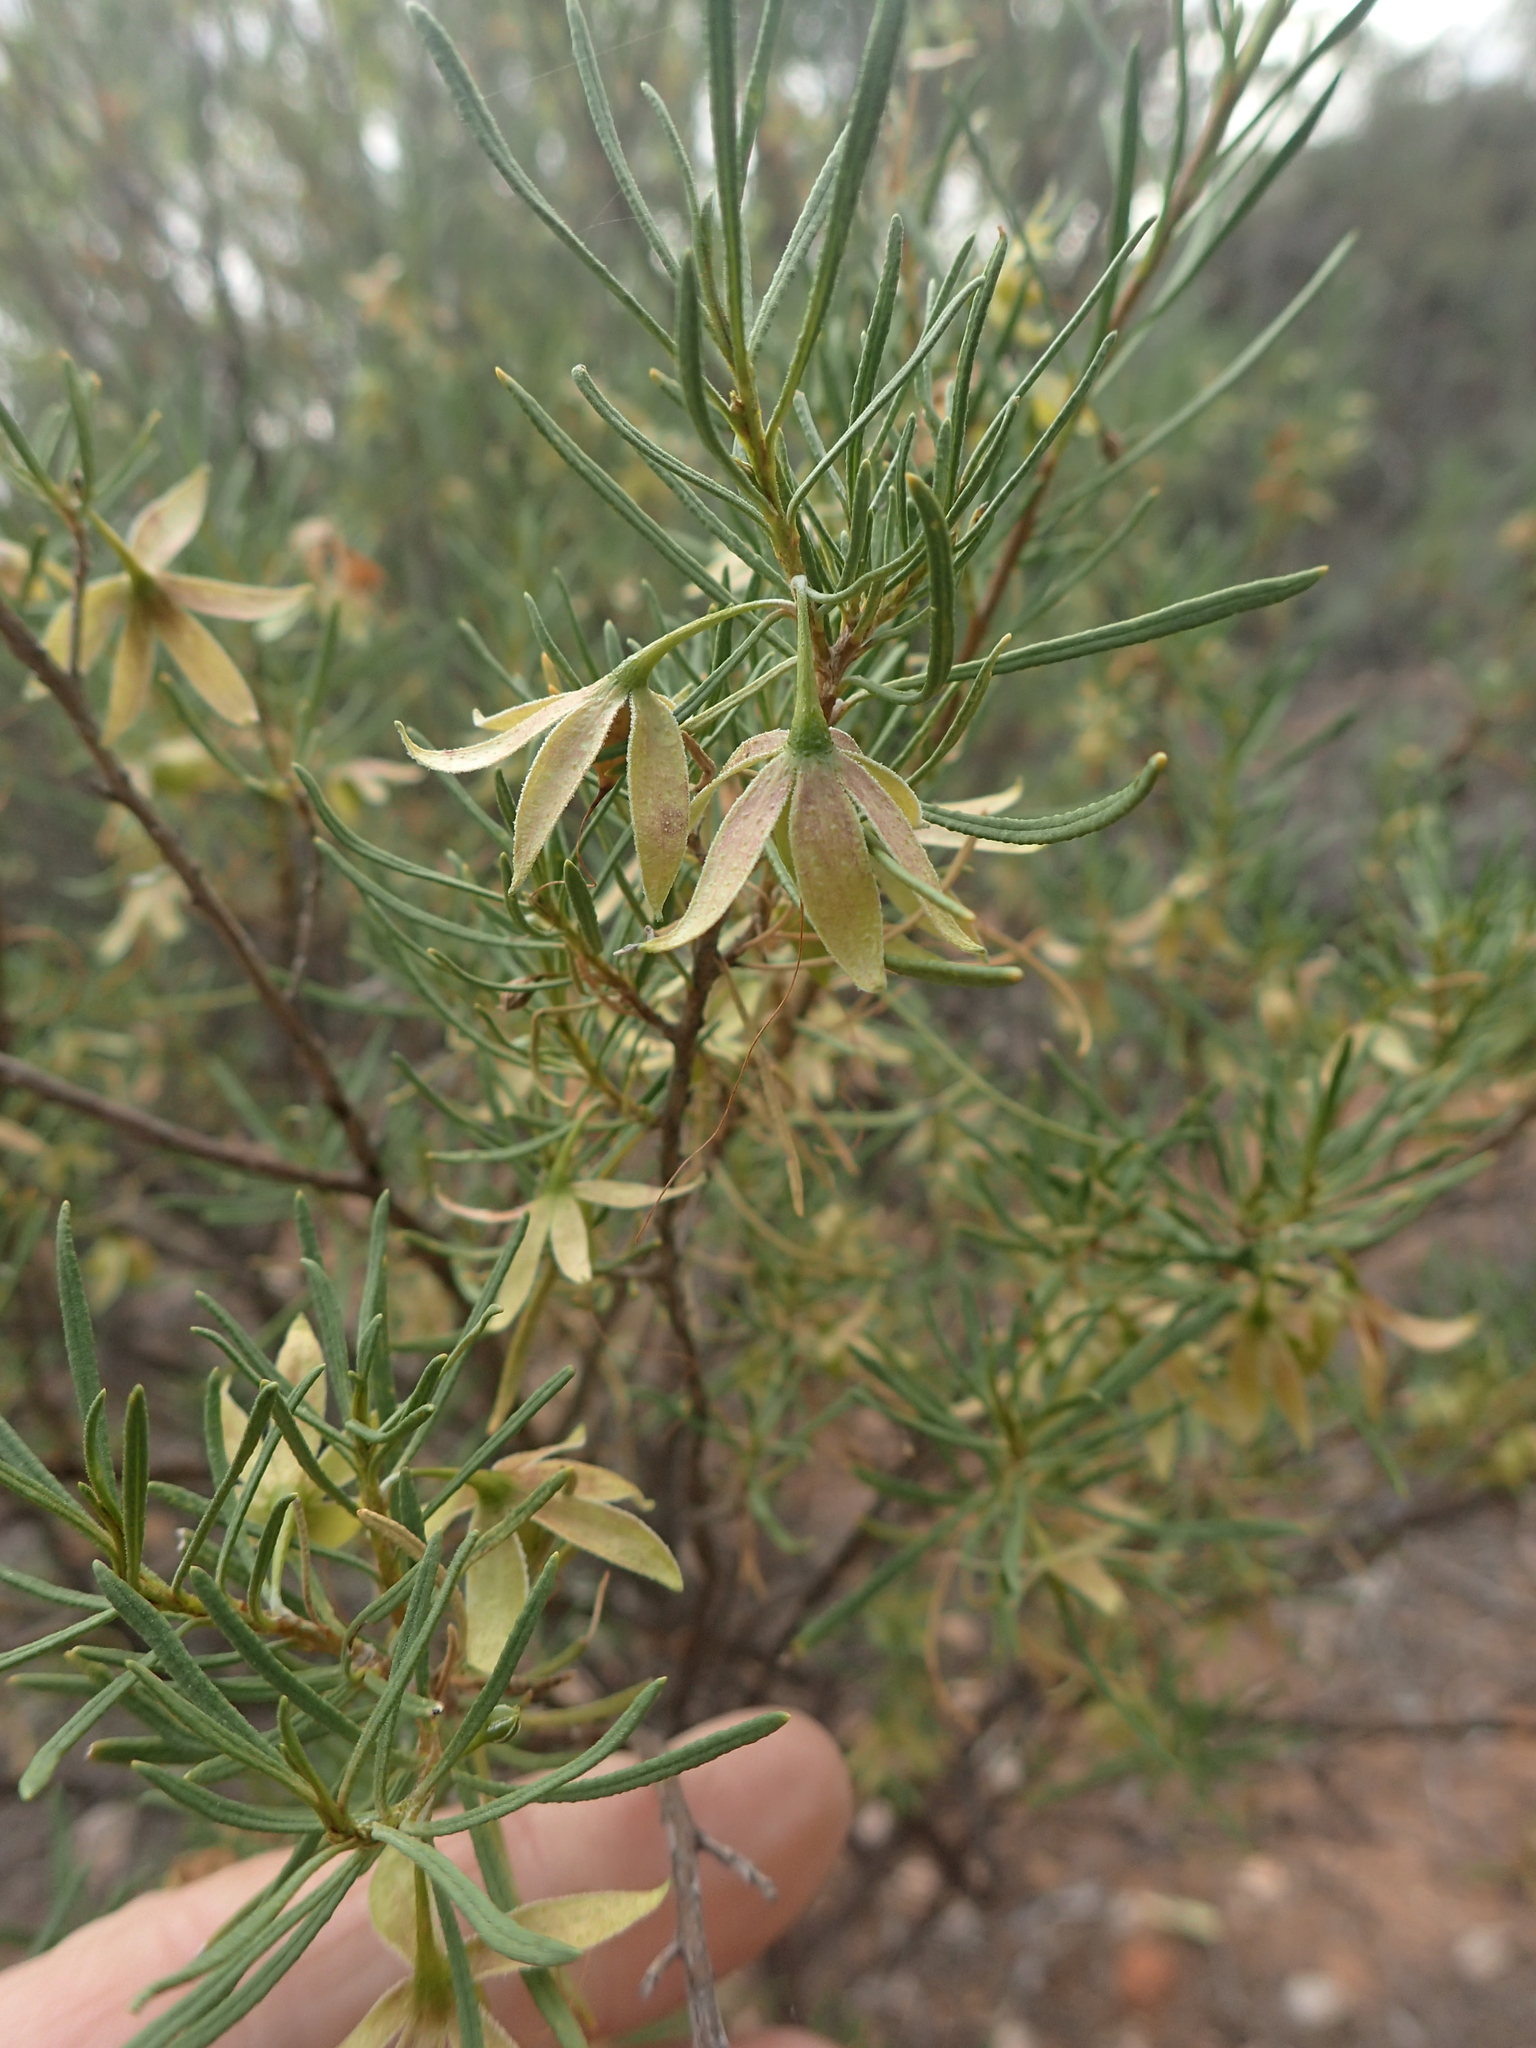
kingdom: Plantae
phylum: Tracheophyta
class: Magnoliopsida
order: Lamiales
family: Scrophulariaceae
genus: Eremophila
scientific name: Eremophila latrobei
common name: Crimson turkeybush
